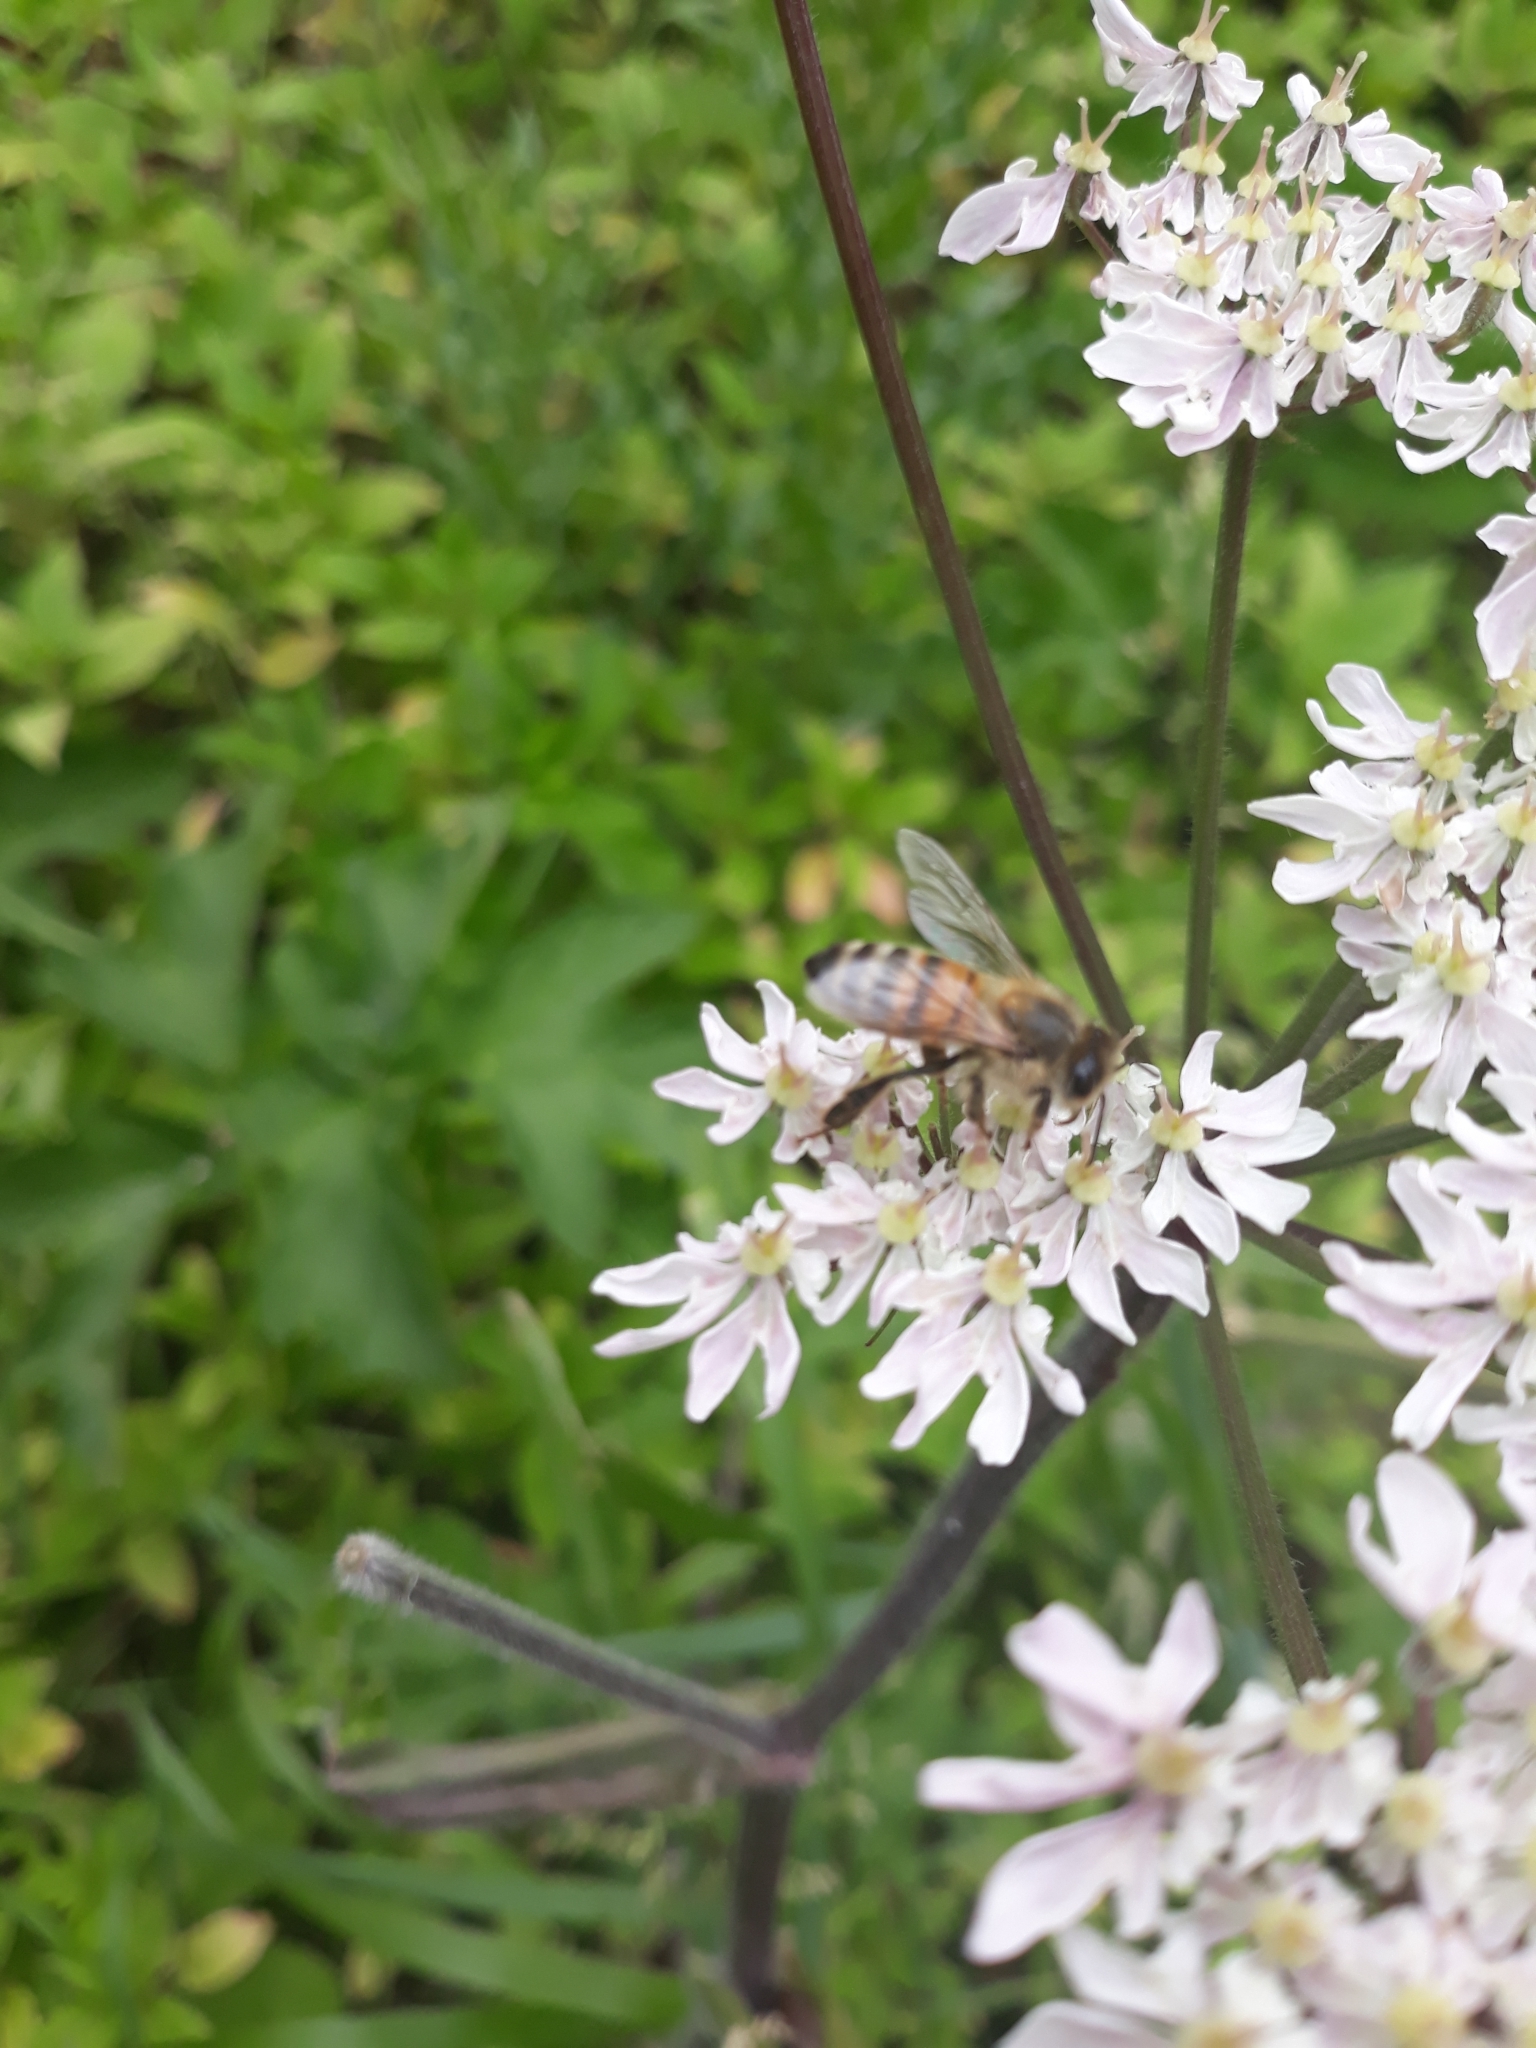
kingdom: Animalia
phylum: Arthropoda
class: Insecta
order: Hymenoptera
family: Apidae
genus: Apis
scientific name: Apis mellifera
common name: Honey bee
